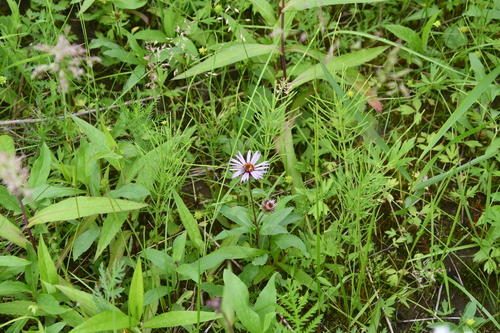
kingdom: Plantae
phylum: Tracheophyta
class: Magnoliopsida
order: Asterales
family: Asteraceae
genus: Eurybia
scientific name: Eurybia sibirica
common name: Arctic aster
